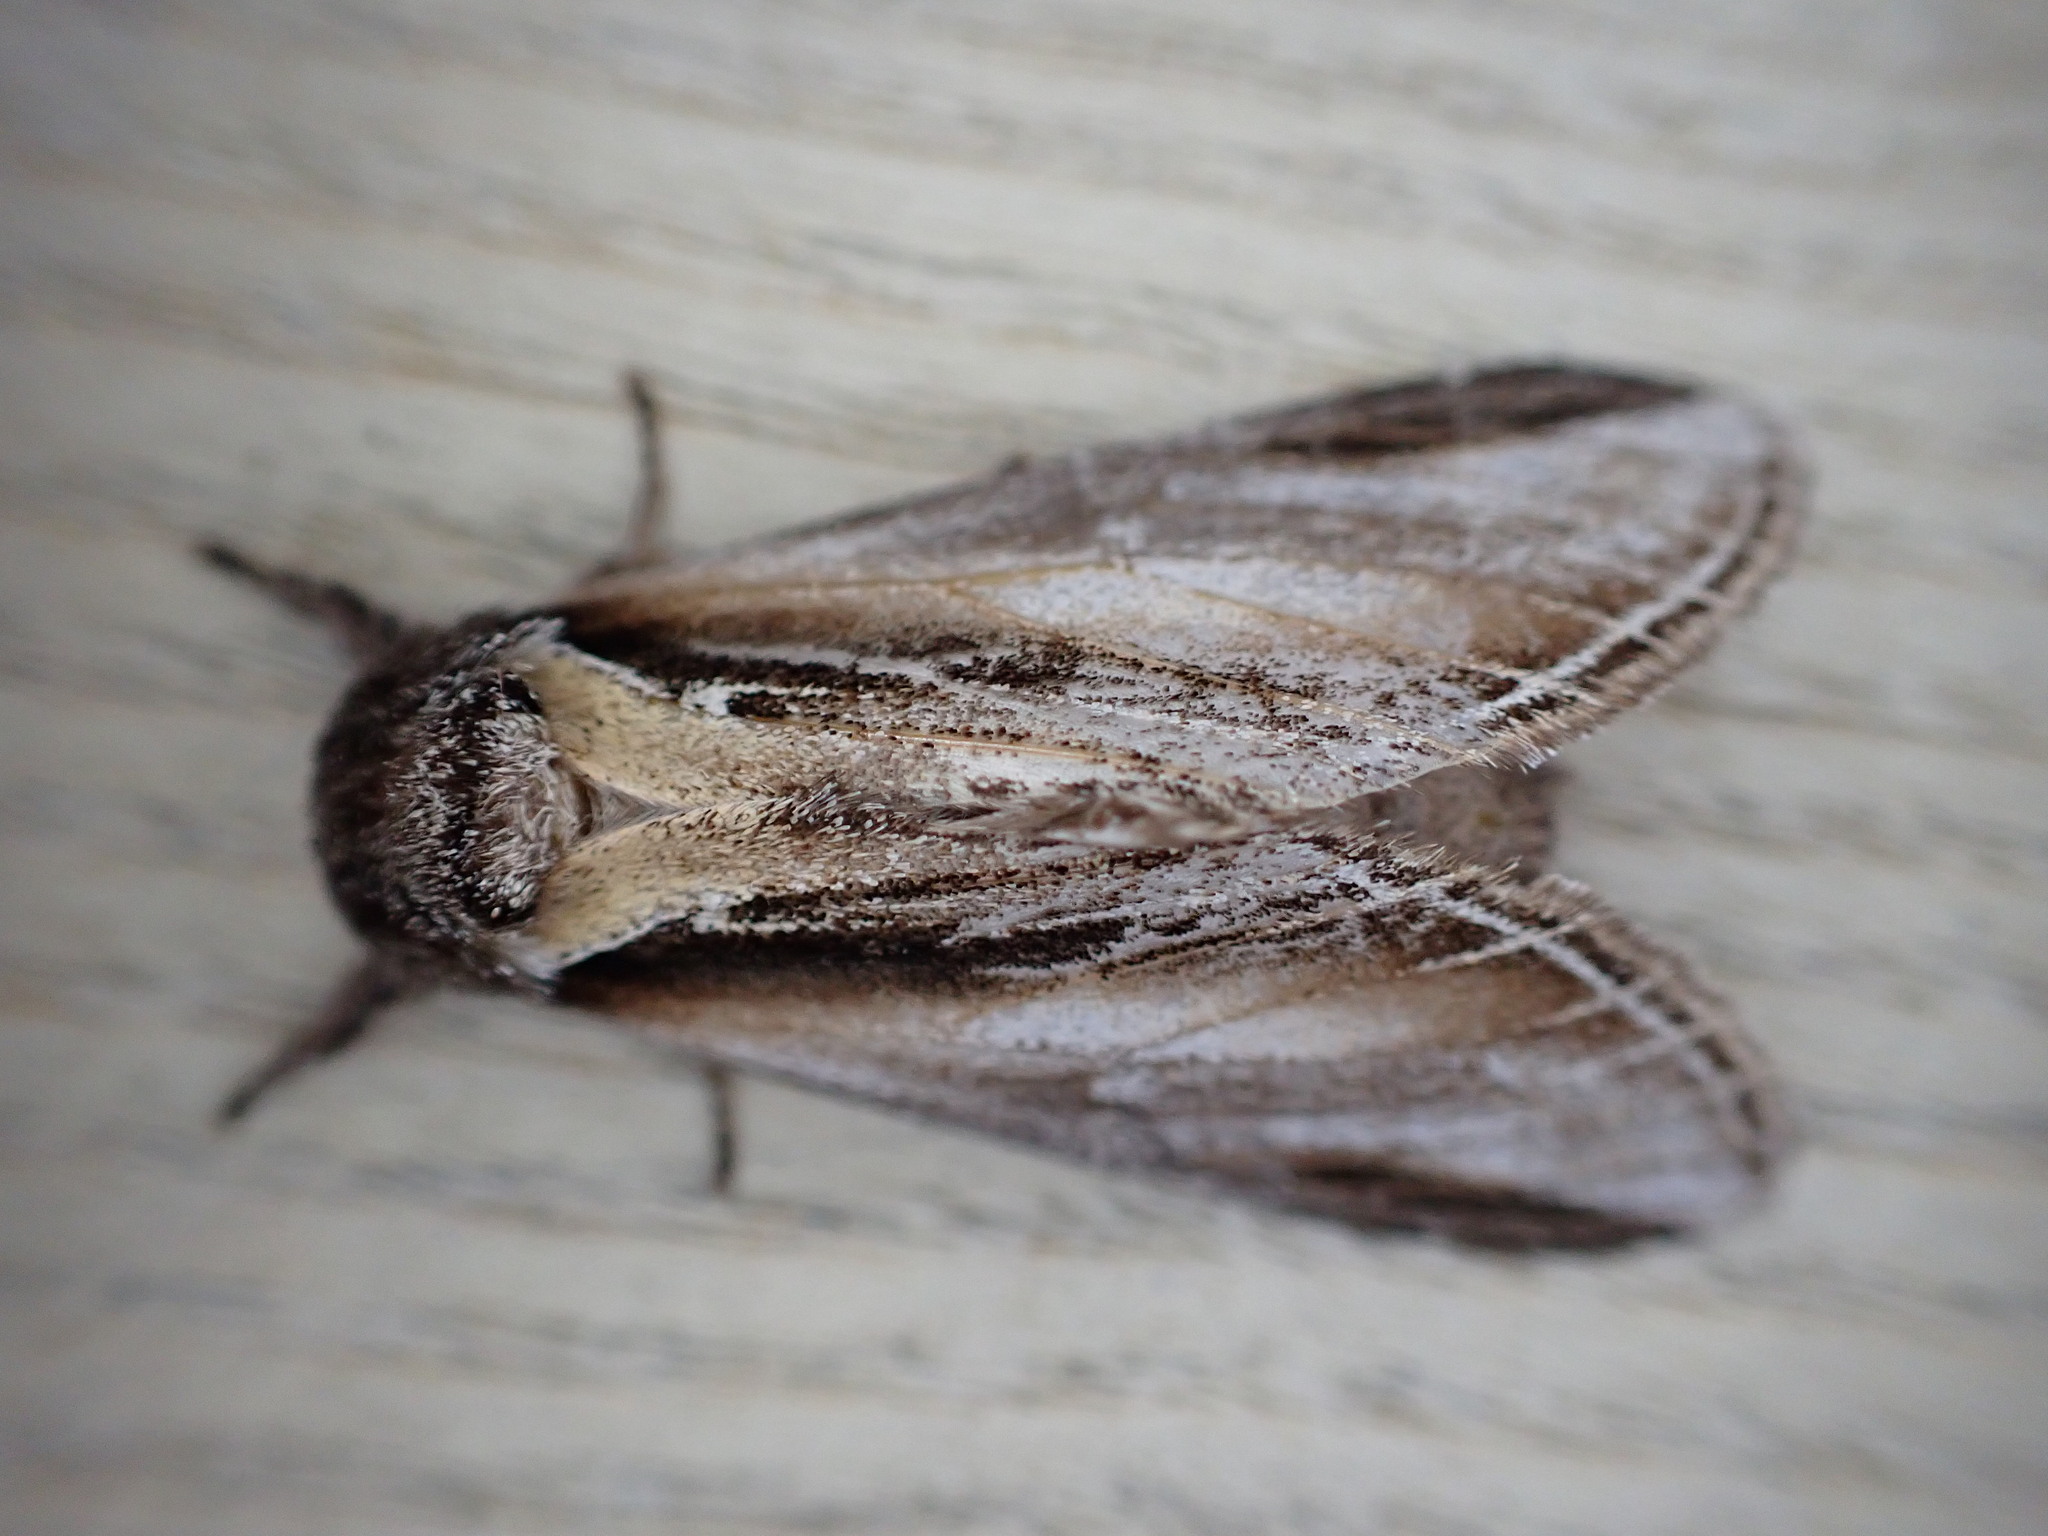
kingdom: Animalia
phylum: Arthropoda
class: Insecta
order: Lepidoptera
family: Notodontidae
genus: Pheosia
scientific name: Pheosia tremula
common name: Swallow prominent
